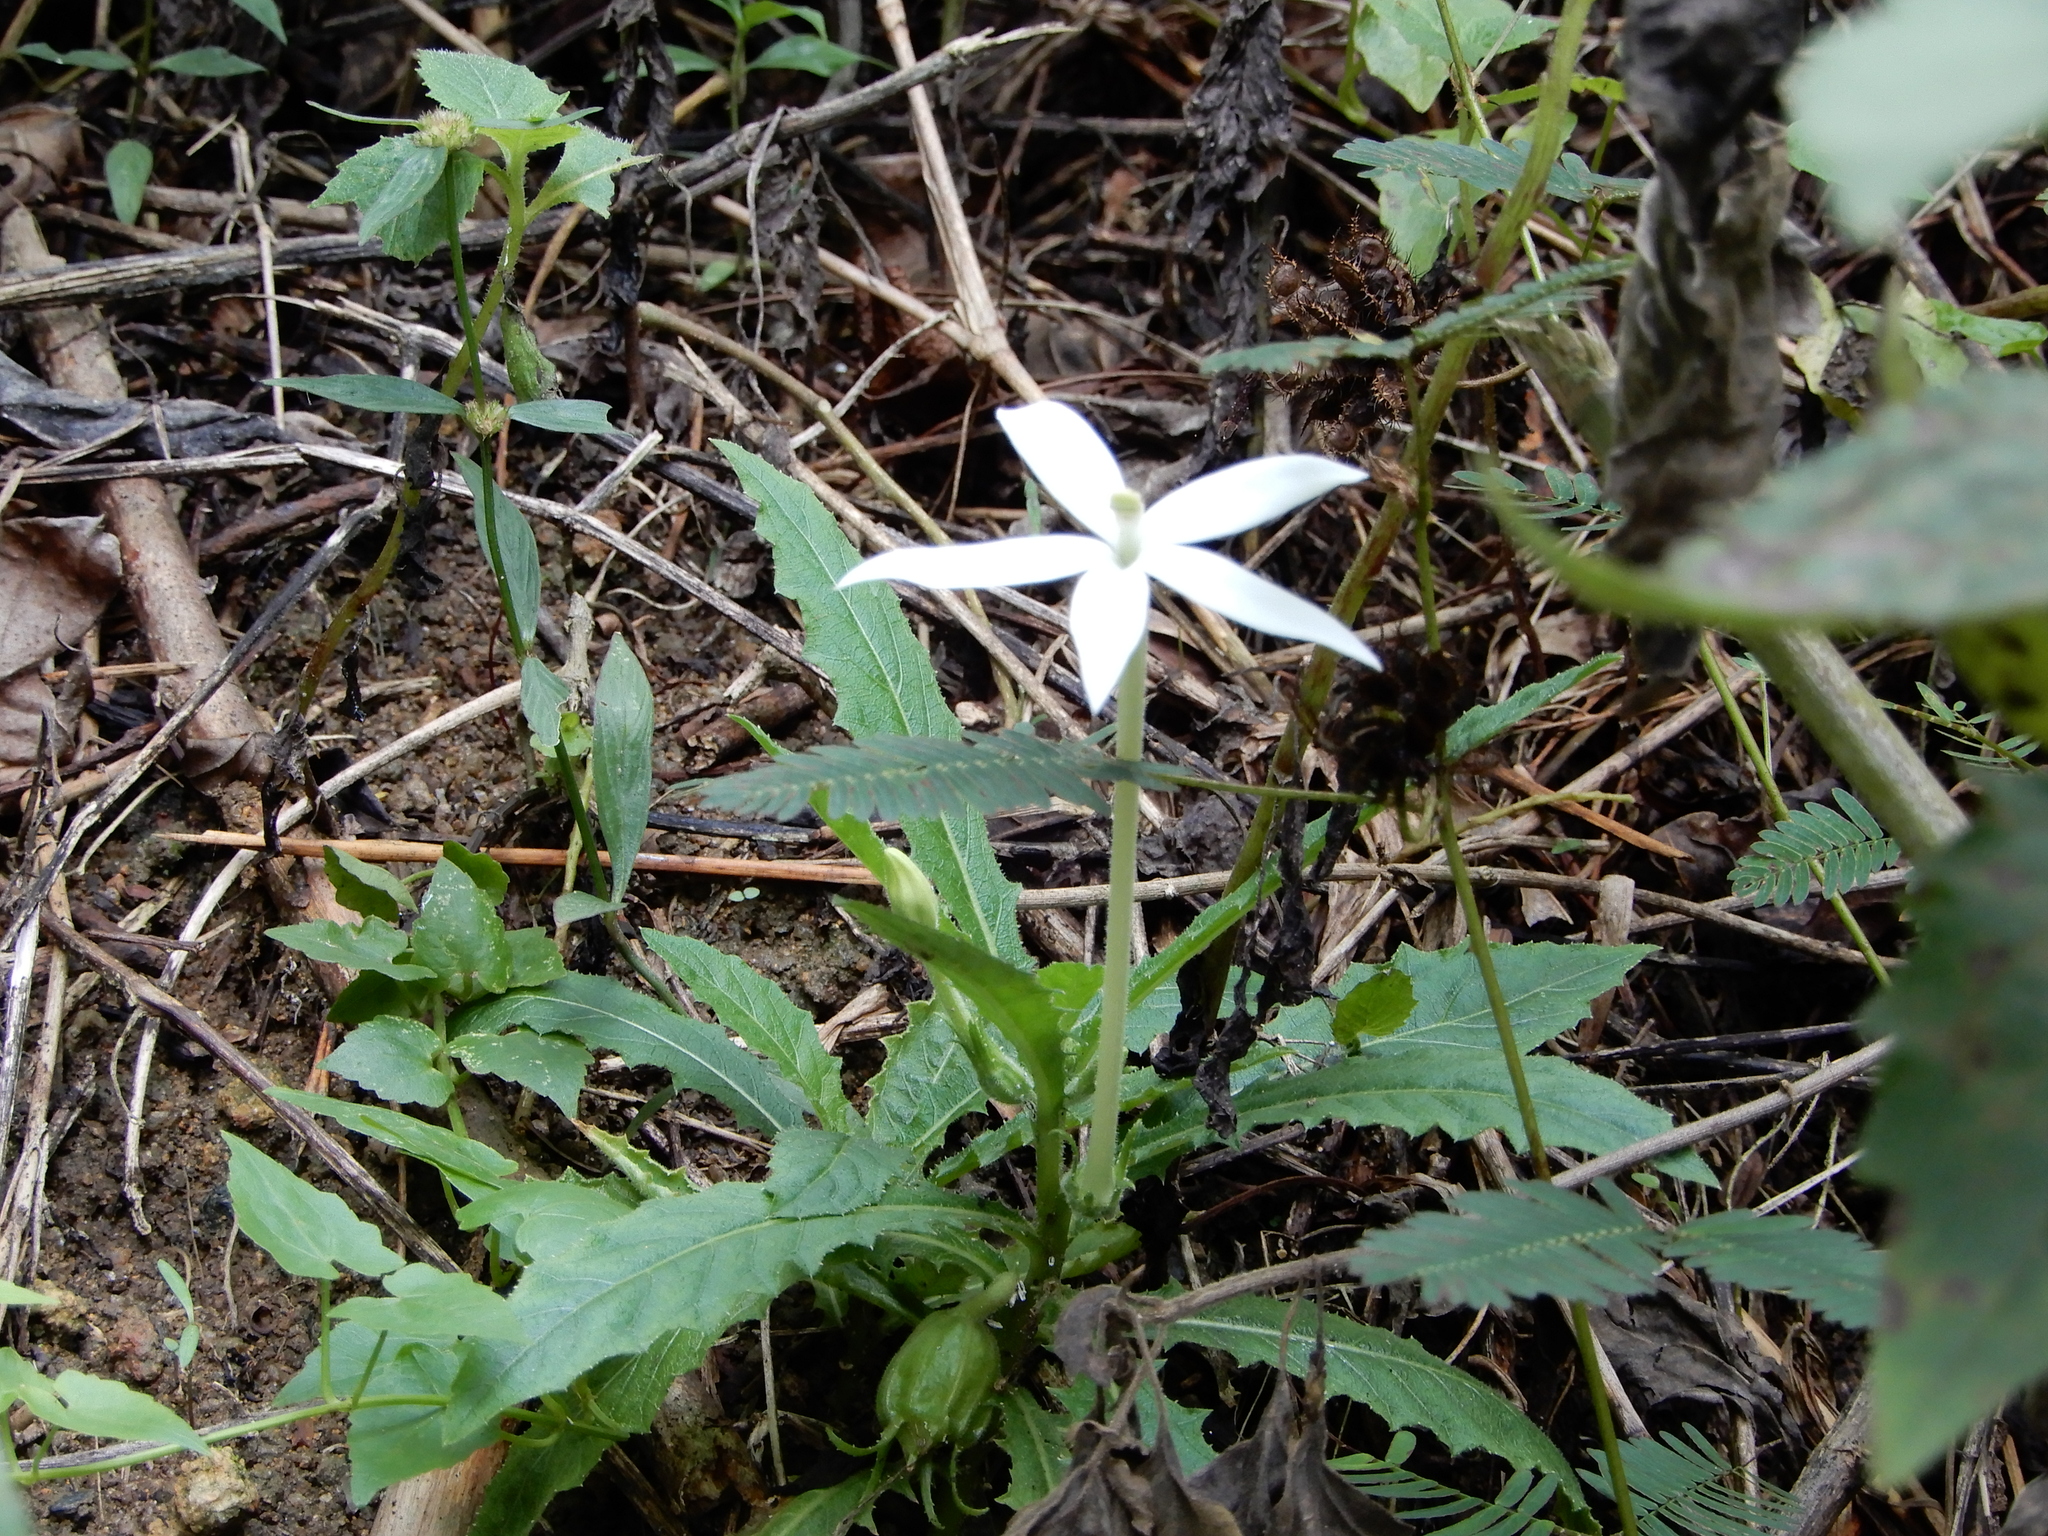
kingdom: Plantae
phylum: Tracheophyta
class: Magnoliopsida
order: Asterales
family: Campanulaceae
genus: Hippobroma
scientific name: Hippobroma longiflora
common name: Madamfate
